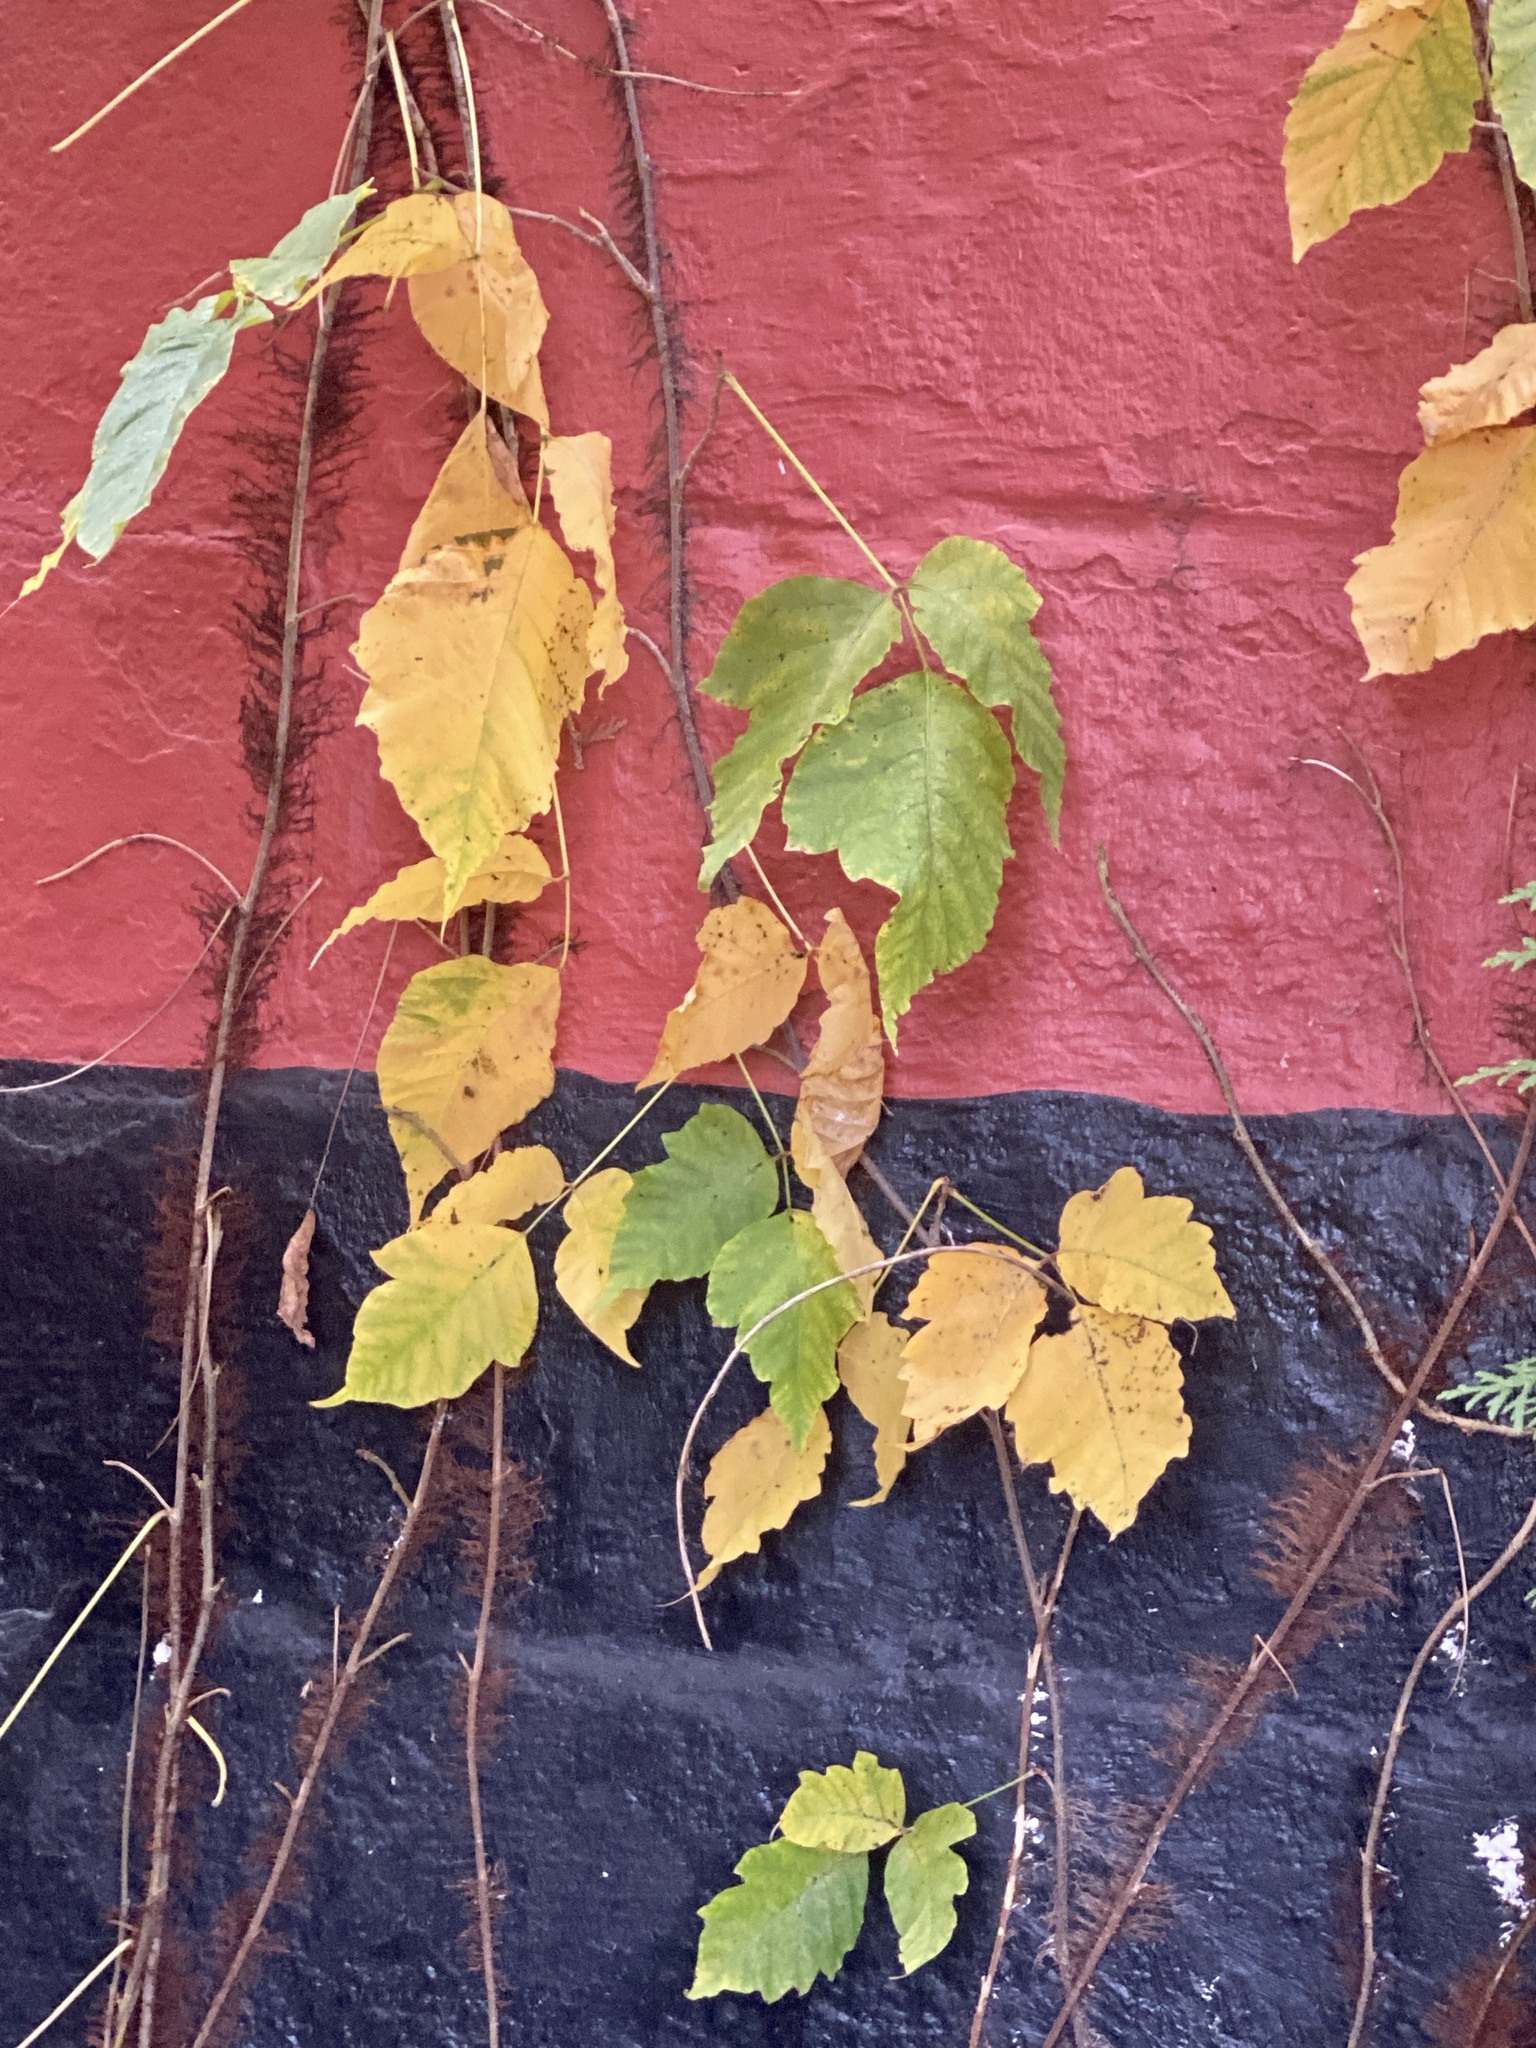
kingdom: Plantae
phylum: Tracheophyta
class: Magnoliopsida
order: Sapindales
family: Anacardiaceae
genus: Toxicodendron
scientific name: Toxicodendron radicans
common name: Poison ivy
